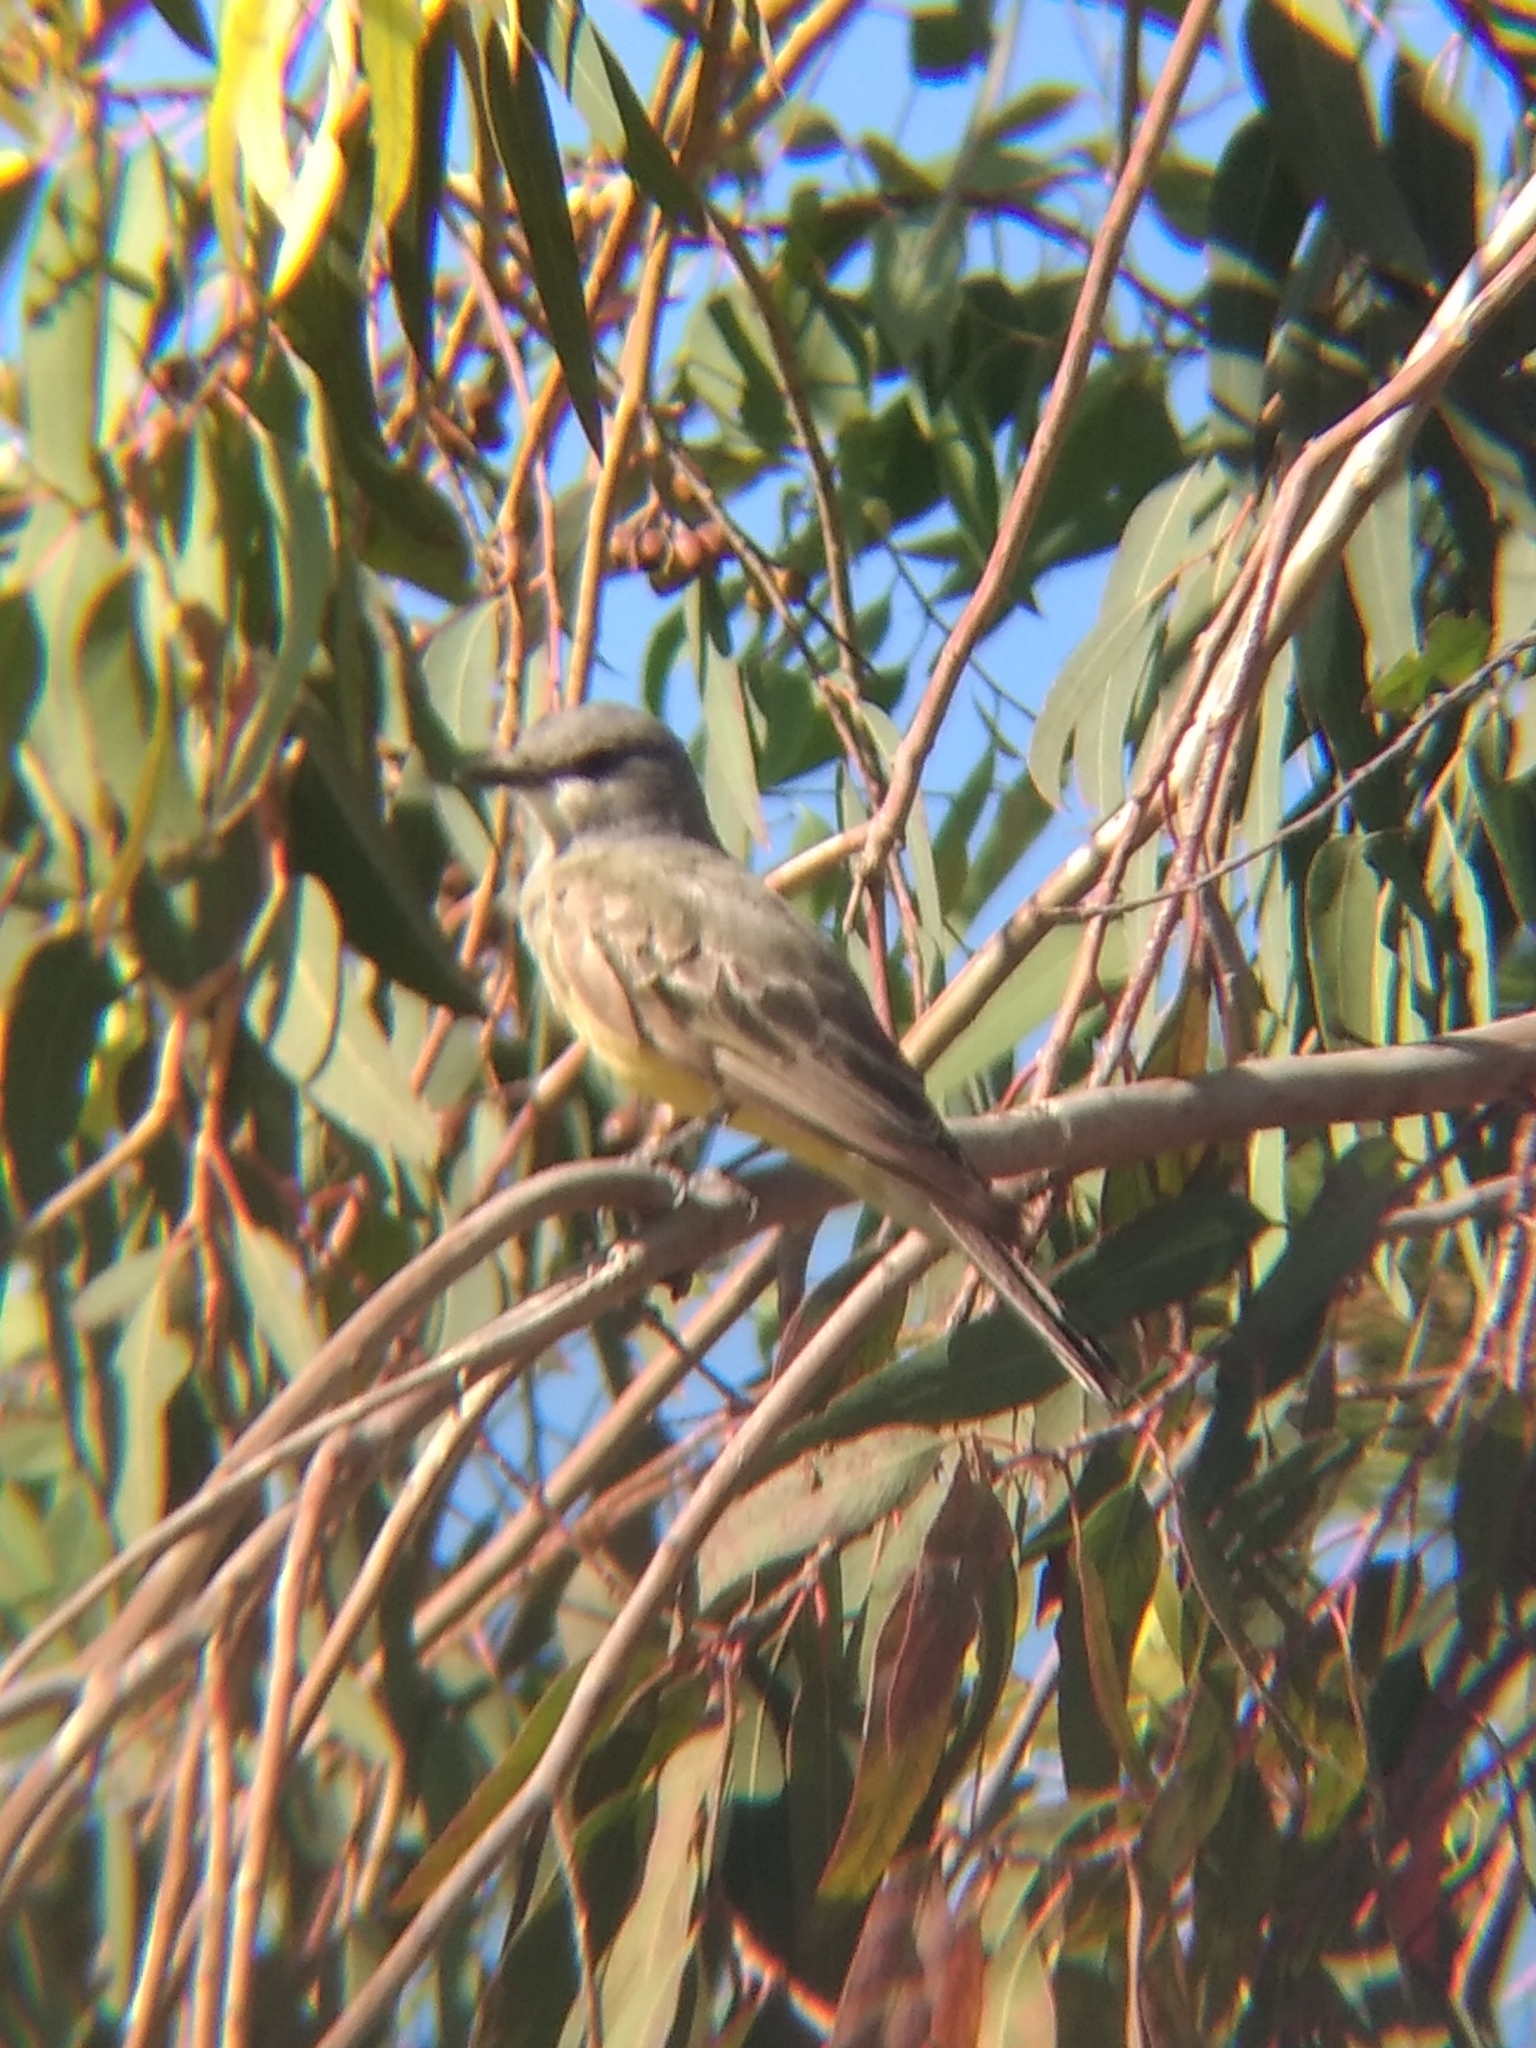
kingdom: Animalia
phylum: Chordata
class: Aves
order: Passeriformes
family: Tyrannidae
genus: Tyrannus
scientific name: Tyrannus vociferans
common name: Cassin's kingbird
